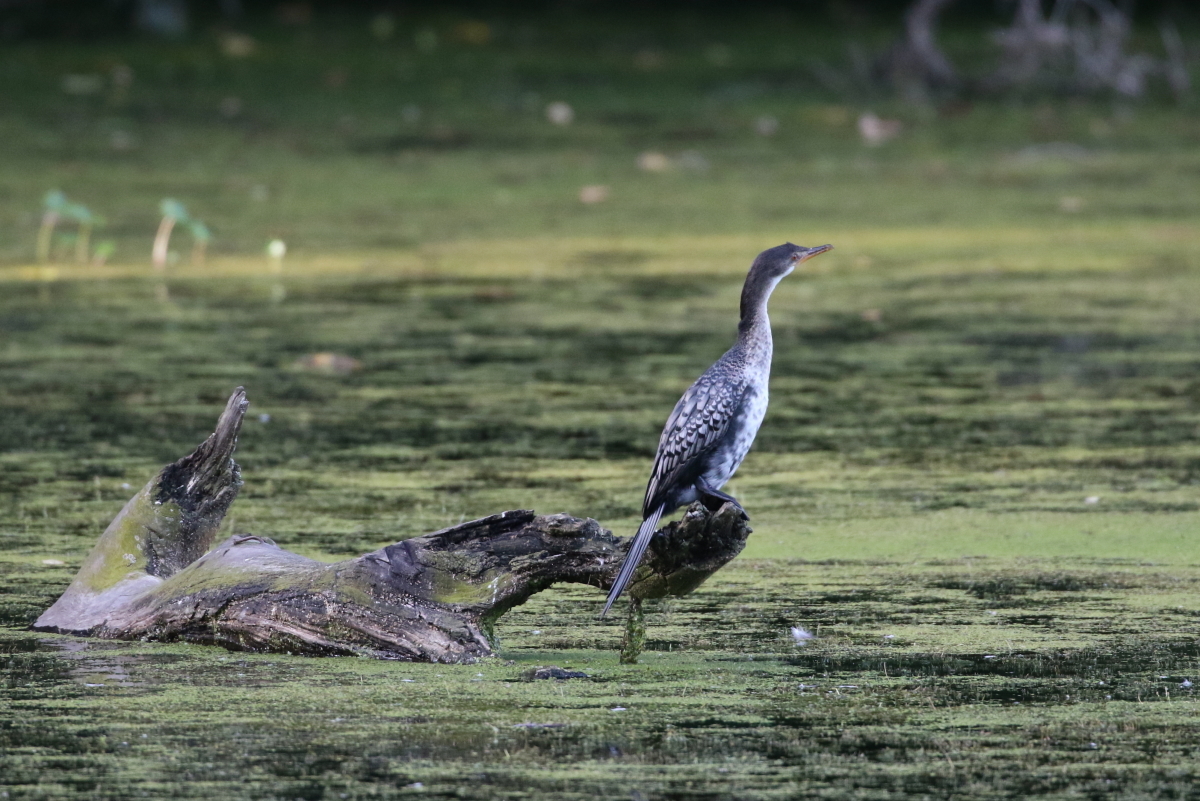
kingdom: Animalia
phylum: Chordata
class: Aves
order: Suliformes
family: Phalacrocoracidae
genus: Microcarbo
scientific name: Microcarbo africanus
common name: Long-tailed cormorant
